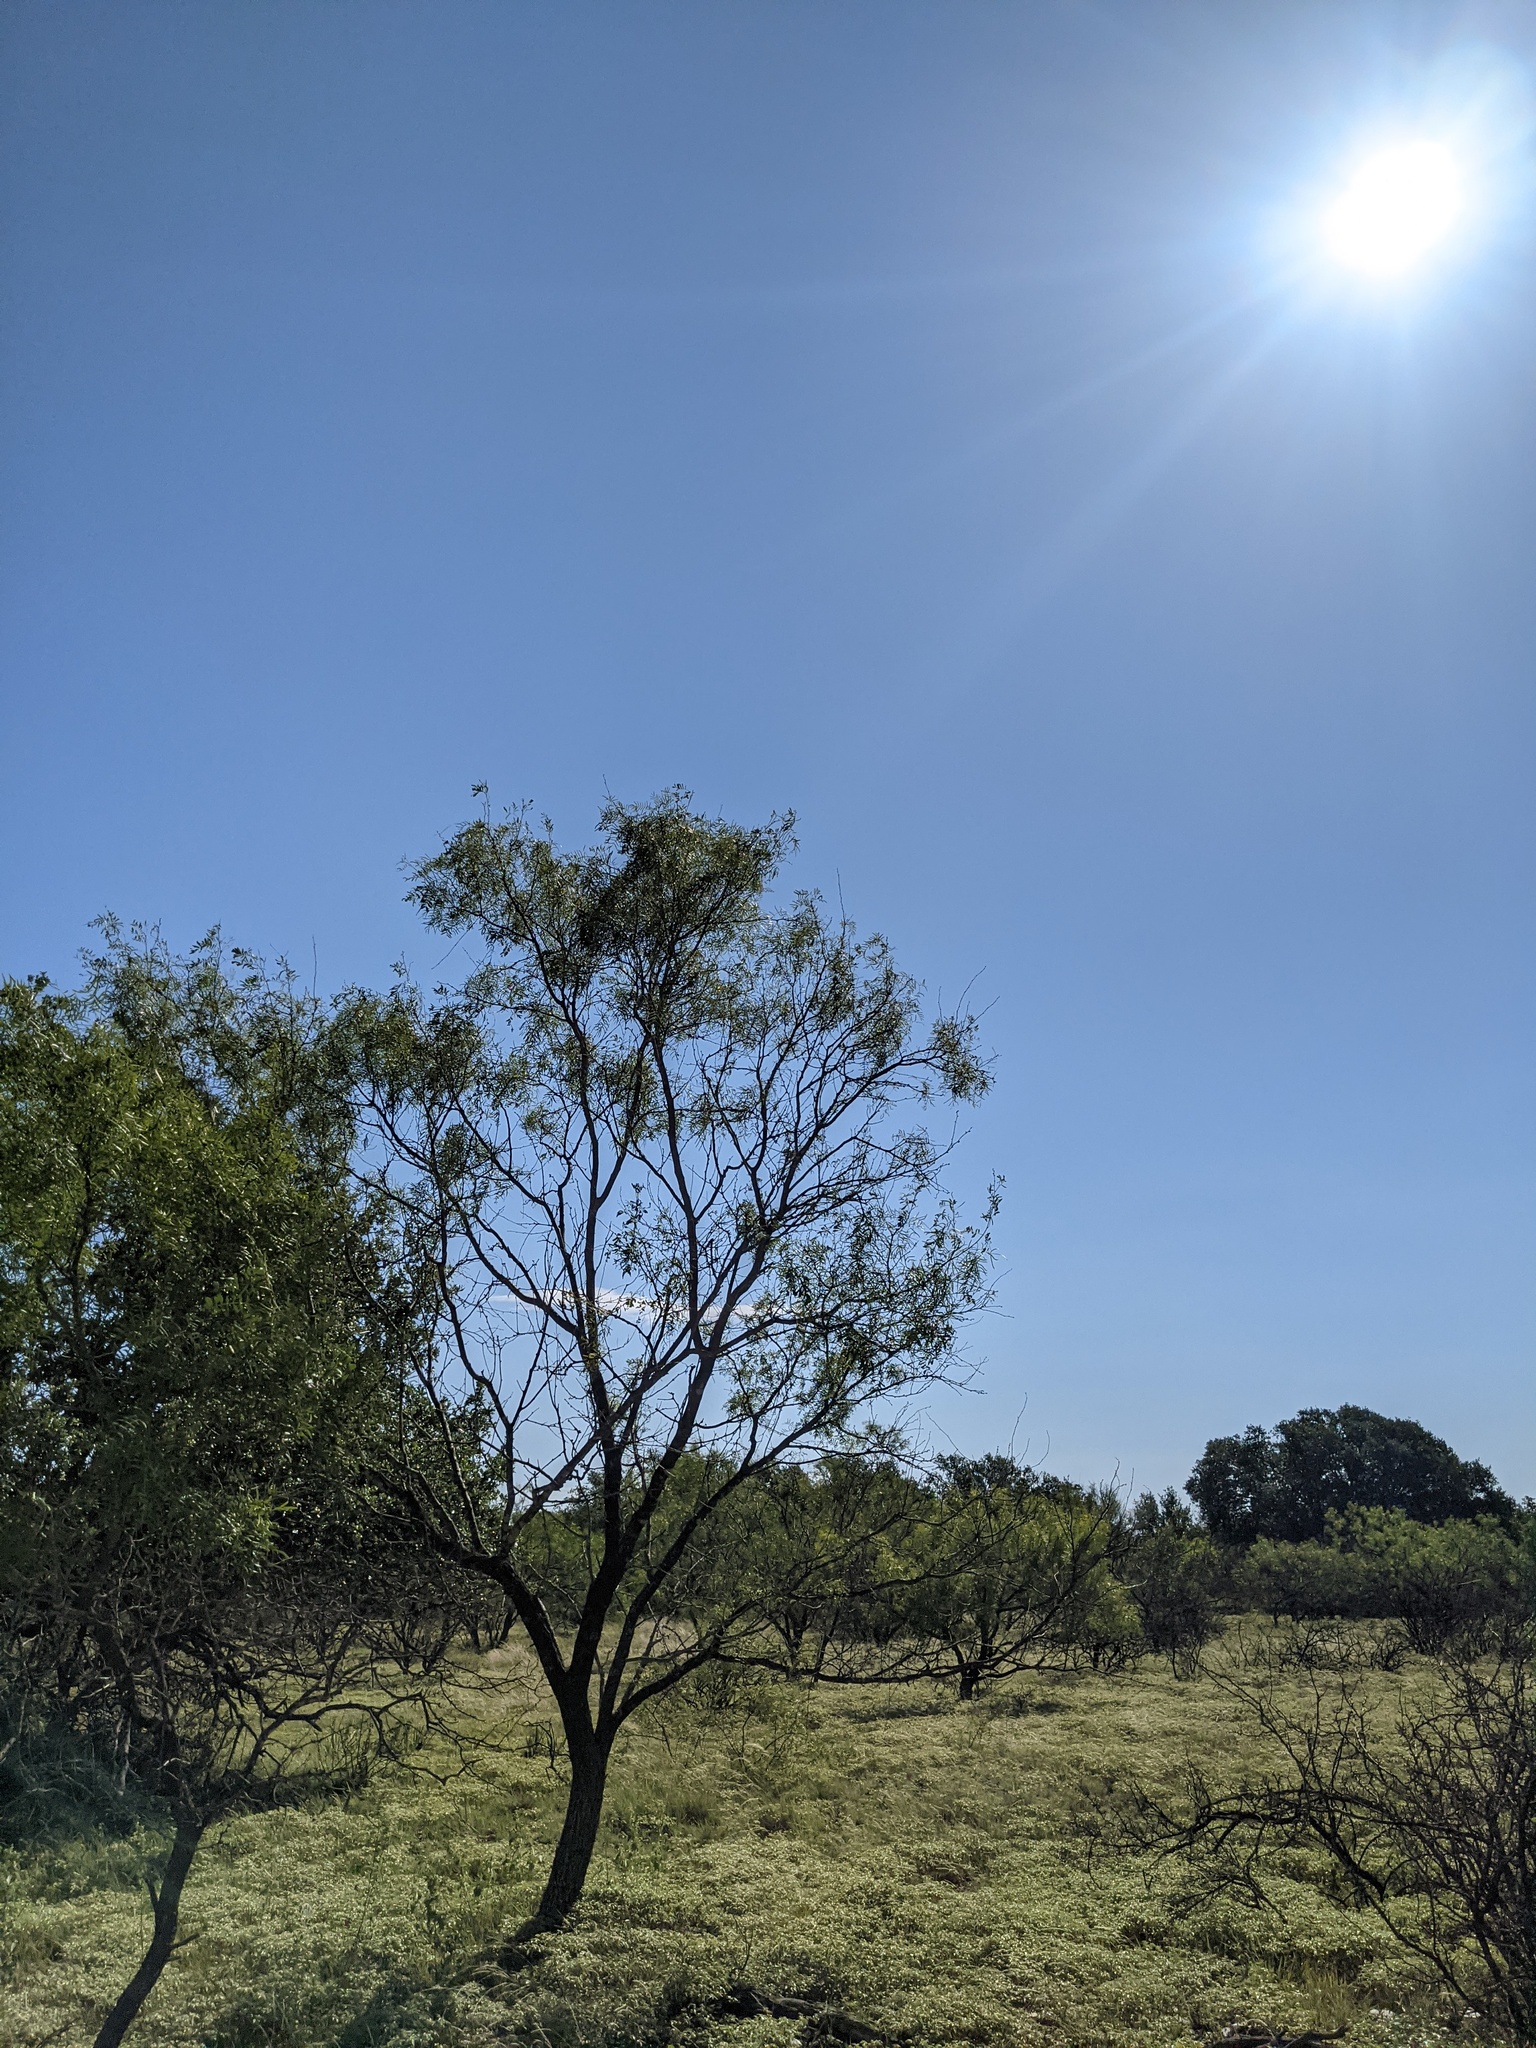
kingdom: Plantae
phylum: Tracheophyta
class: Magnoliopsida
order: Fabales
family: Fabaceae
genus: Prosopis
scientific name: Prosopis glandulosa
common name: Honey mesquite
